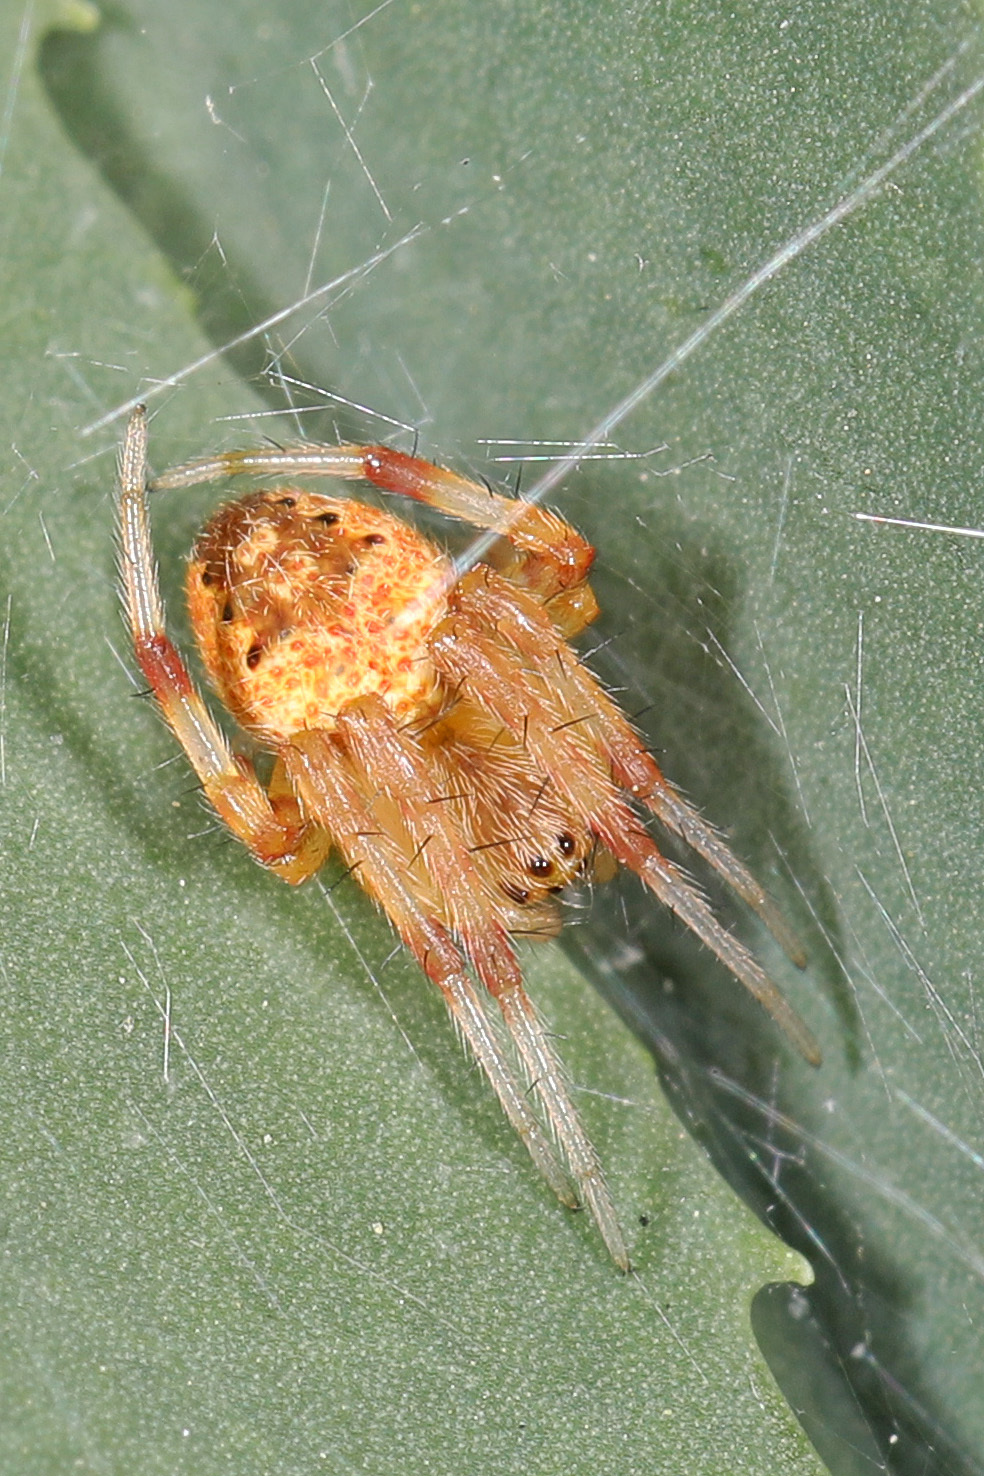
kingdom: Animalia
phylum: Arthropoda
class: Arachnida
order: Araneae
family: Araneidae
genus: Neoscona
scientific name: Neoscona arabesca
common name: Orb weavers
